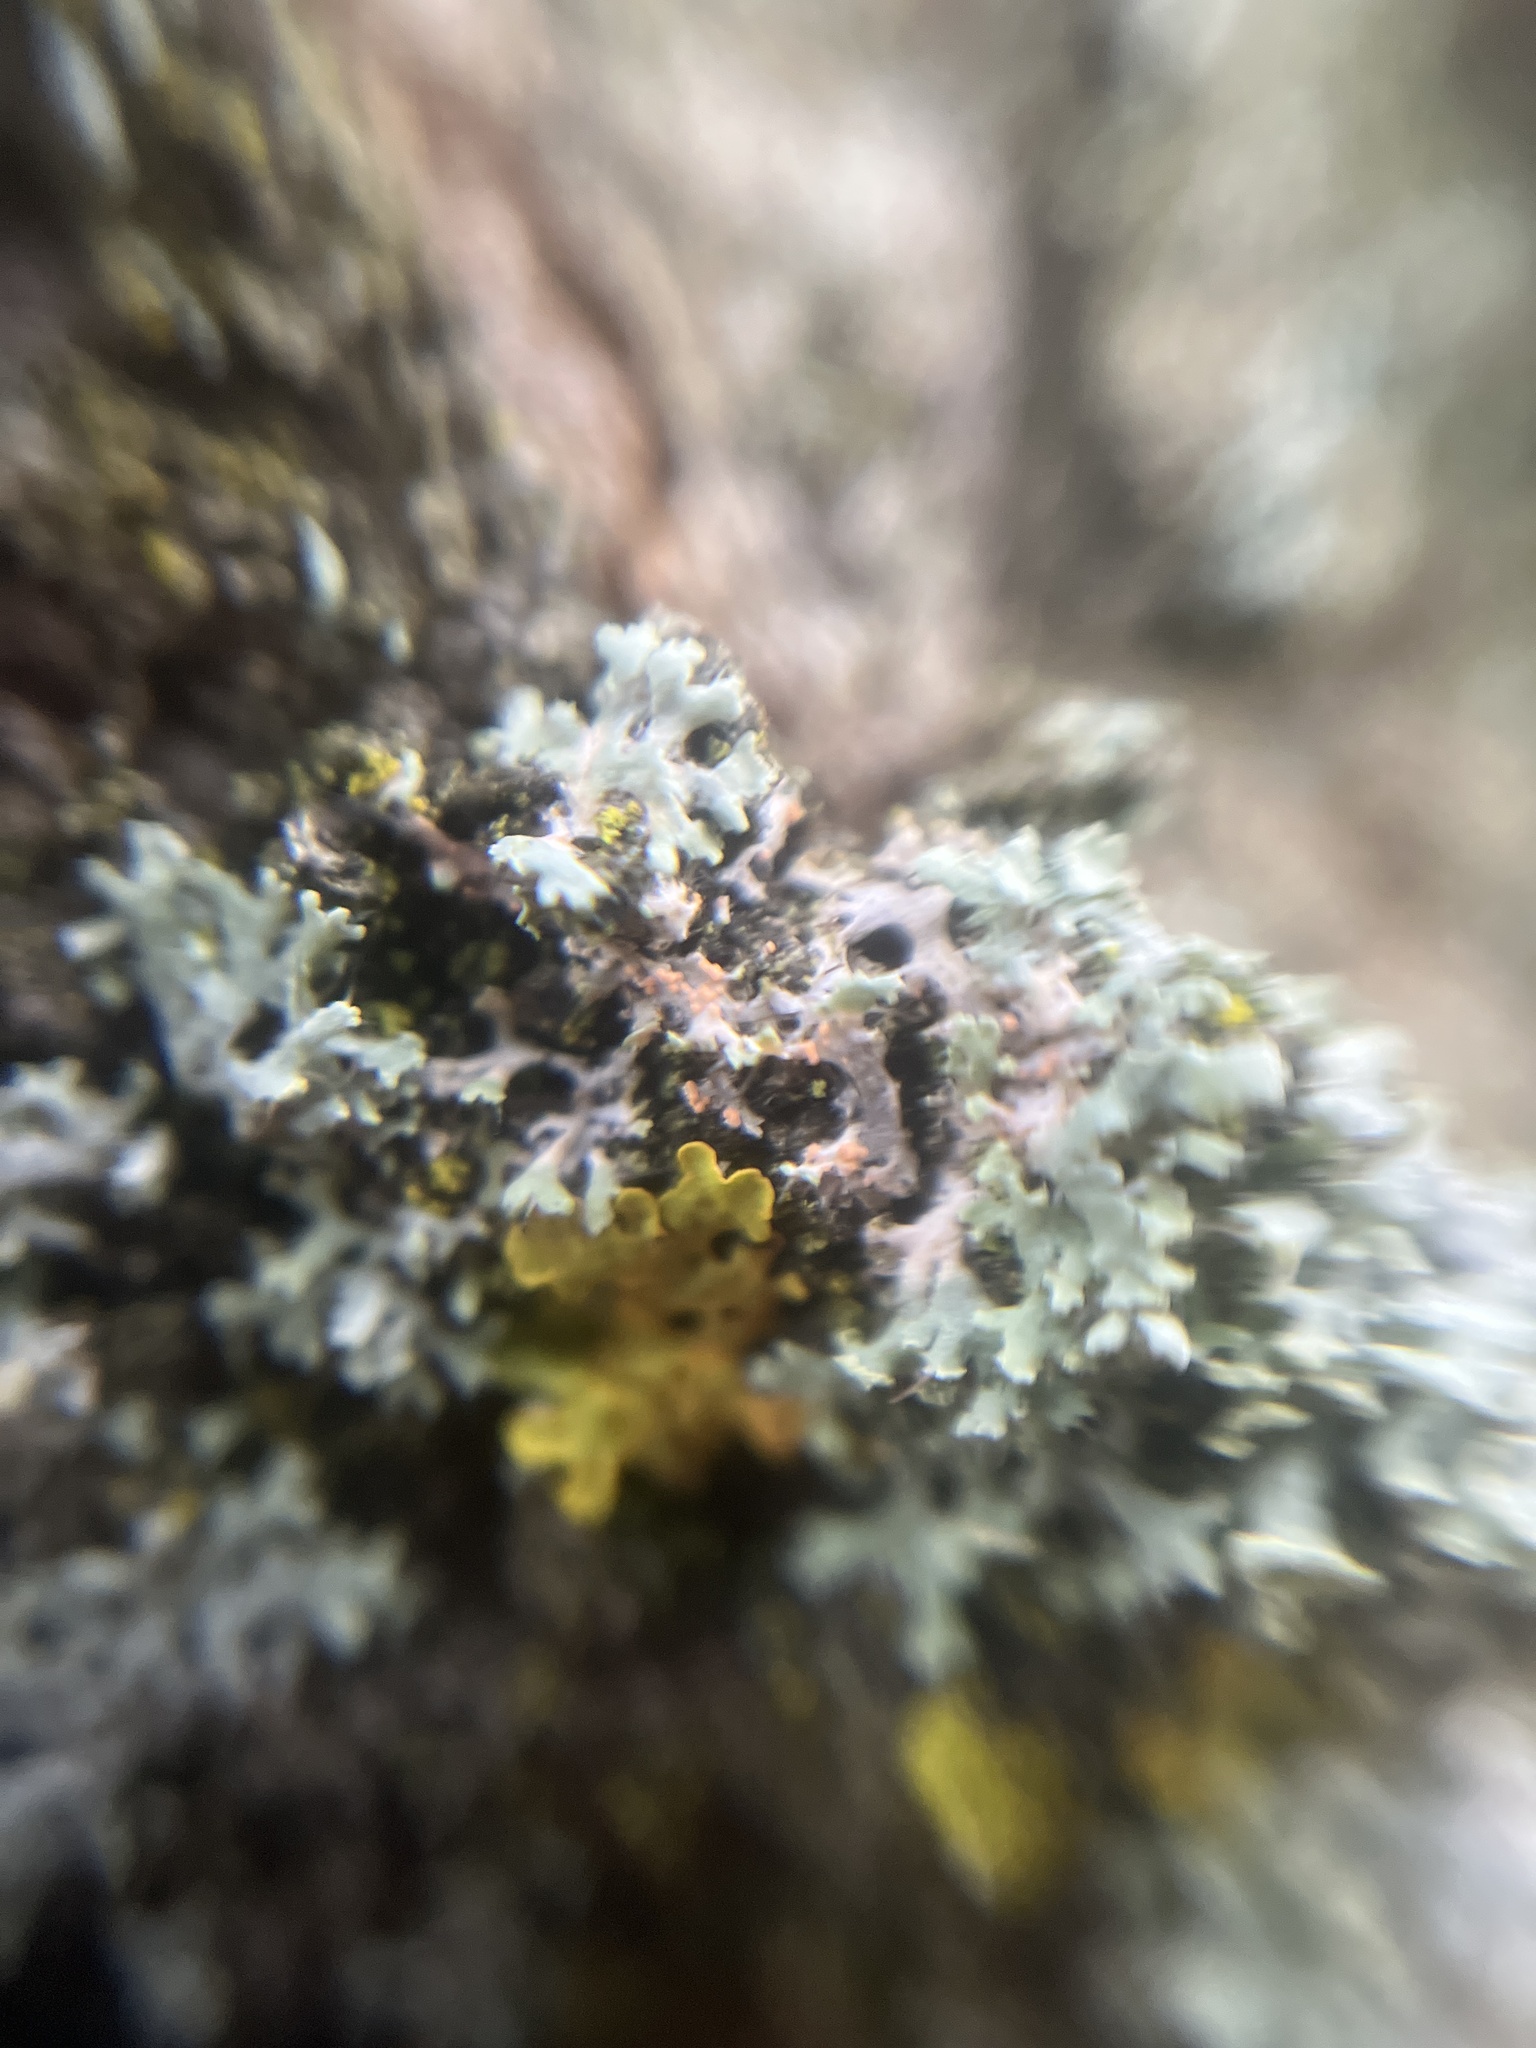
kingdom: Fungi
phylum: Basidiomycota
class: Agaricomycetes
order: Corticiales
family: Corticiaceae
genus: Erythricium
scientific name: Erythricium aurantiacum
